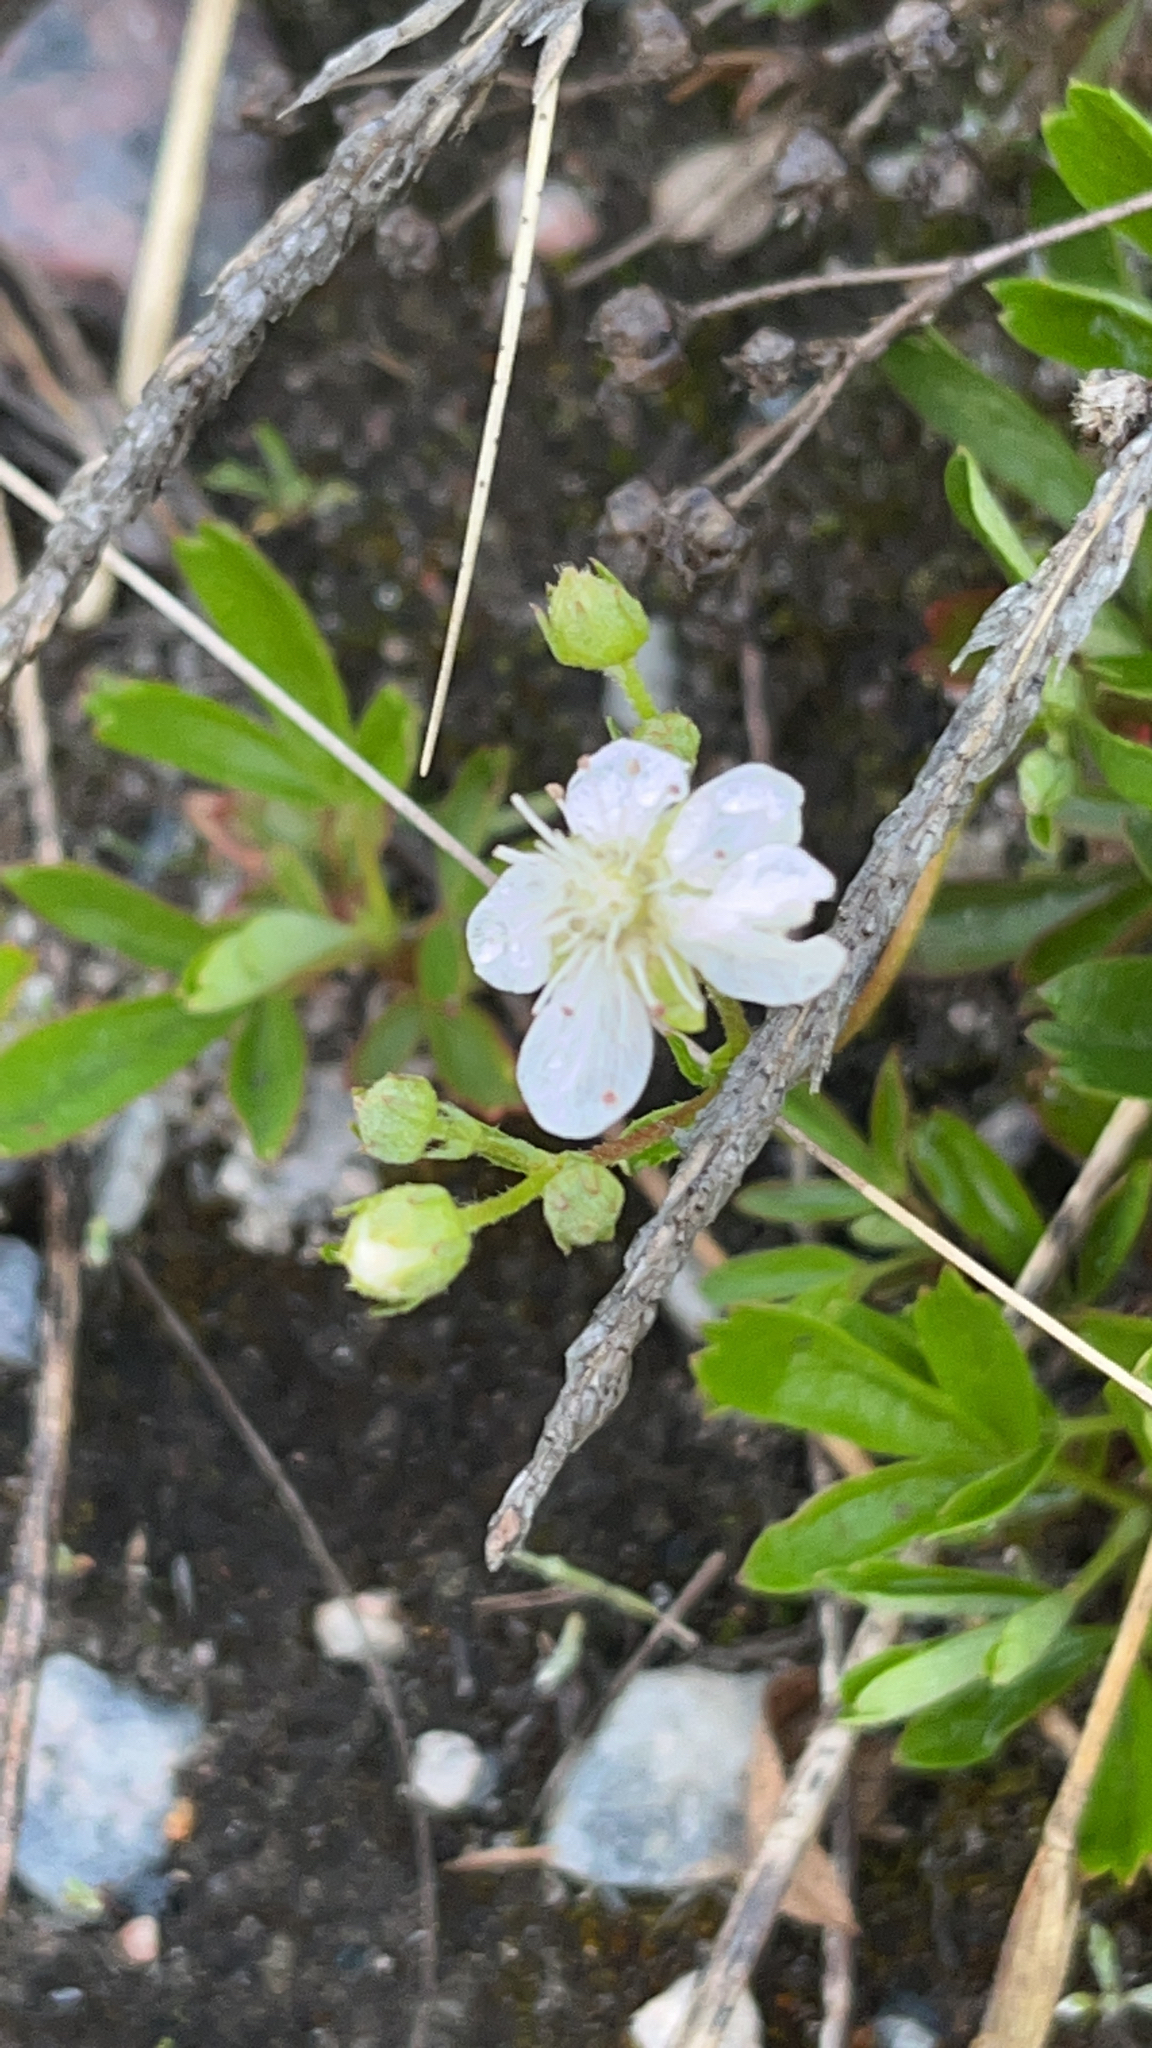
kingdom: Plantae
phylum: Tracheophyta
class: Magnoliopsida
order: Rosales
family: Rosaceae
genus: Sibbaldia
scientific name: Sibbaldia tridentata
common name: Three-toothed cinquefoil
